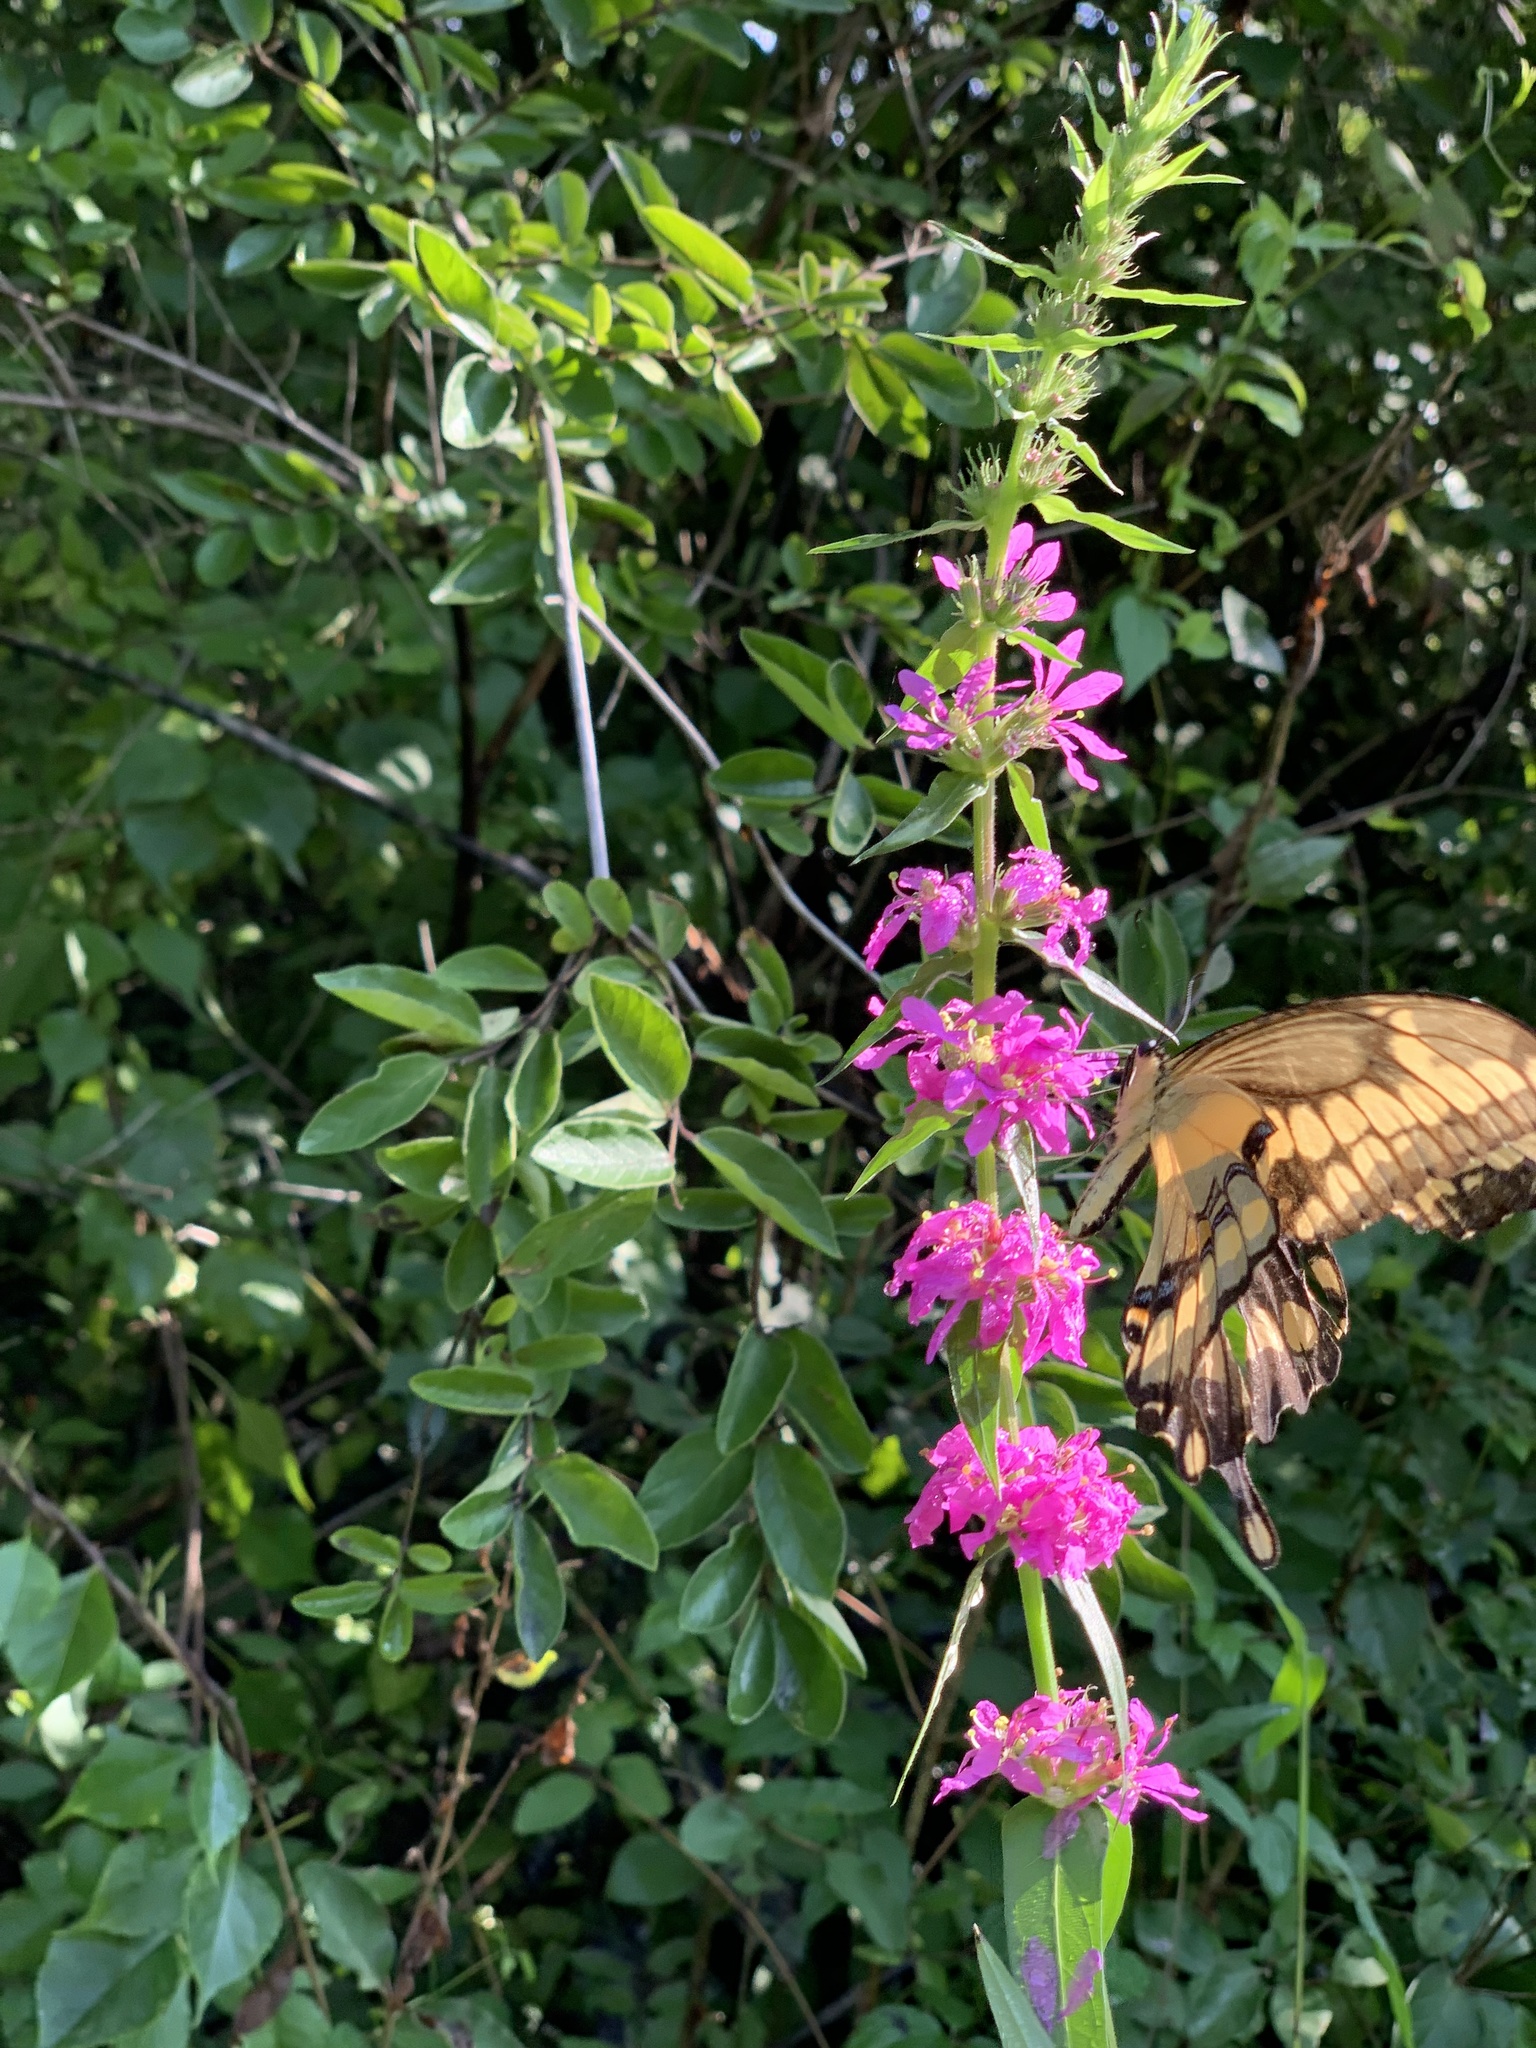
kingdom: Animalia
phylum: Arthropoda
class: Insecta
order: Lepidoptera
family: Papilionidae
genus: Papilio
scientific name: Papilio cresphontes
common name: Giant swallowtail
